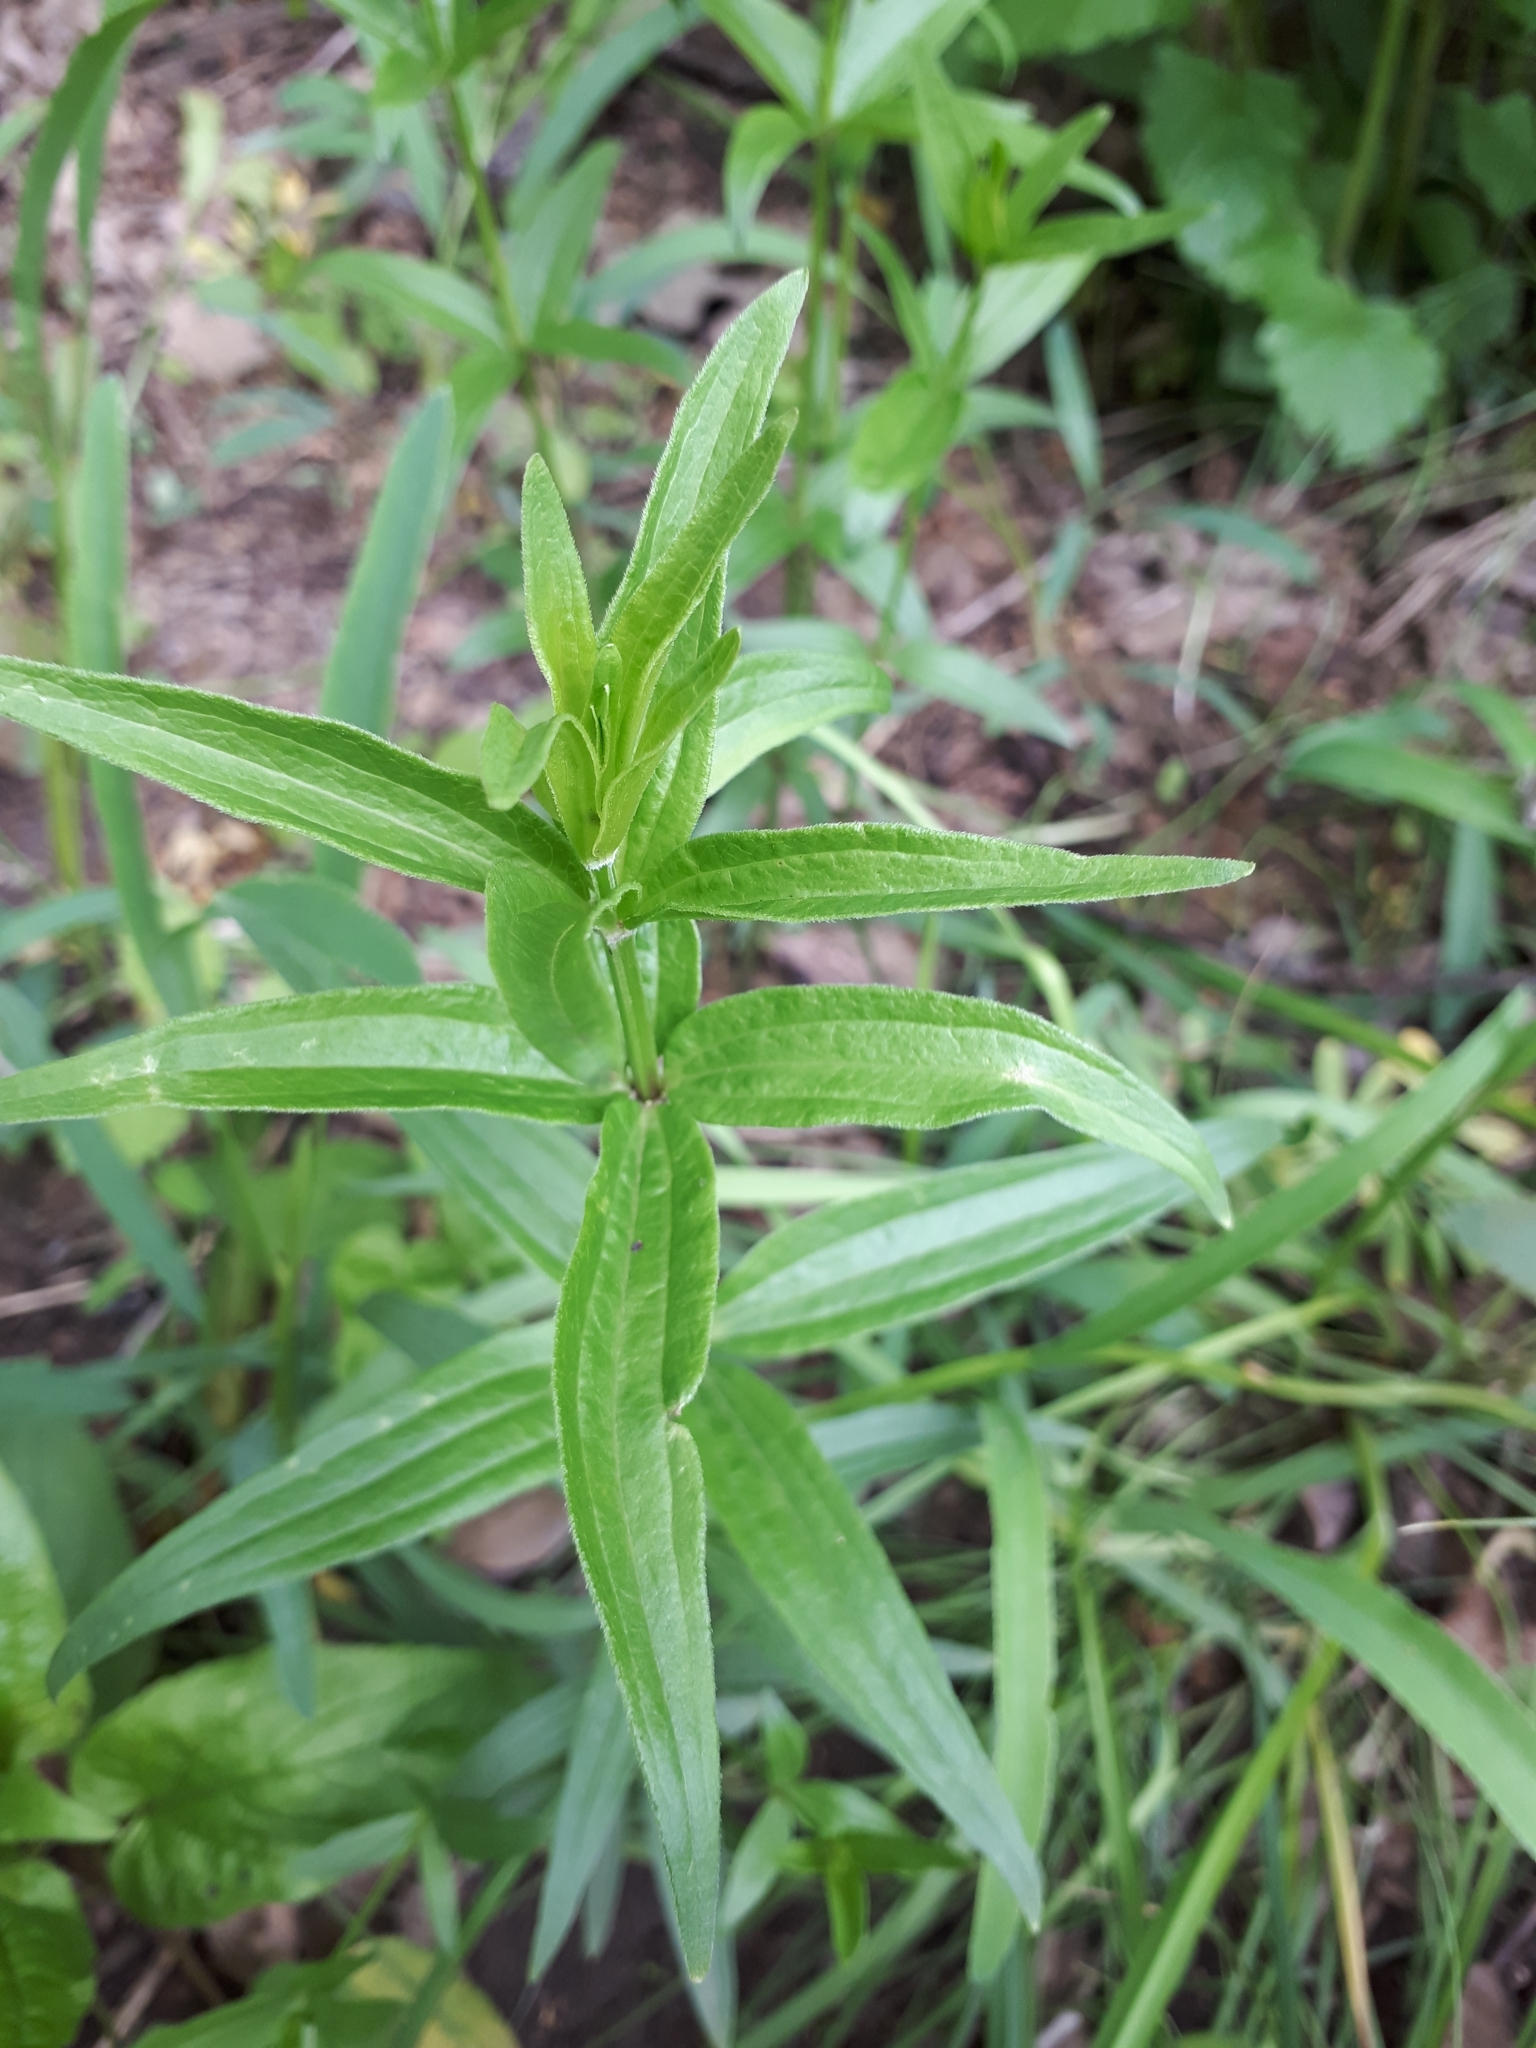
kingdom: Plantae
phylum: Tracheophyta
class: Magnoliopsida
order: Gentianales
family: Rubiaceae
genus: Galium
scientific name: Galium boreale
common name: Northern bedstraw
